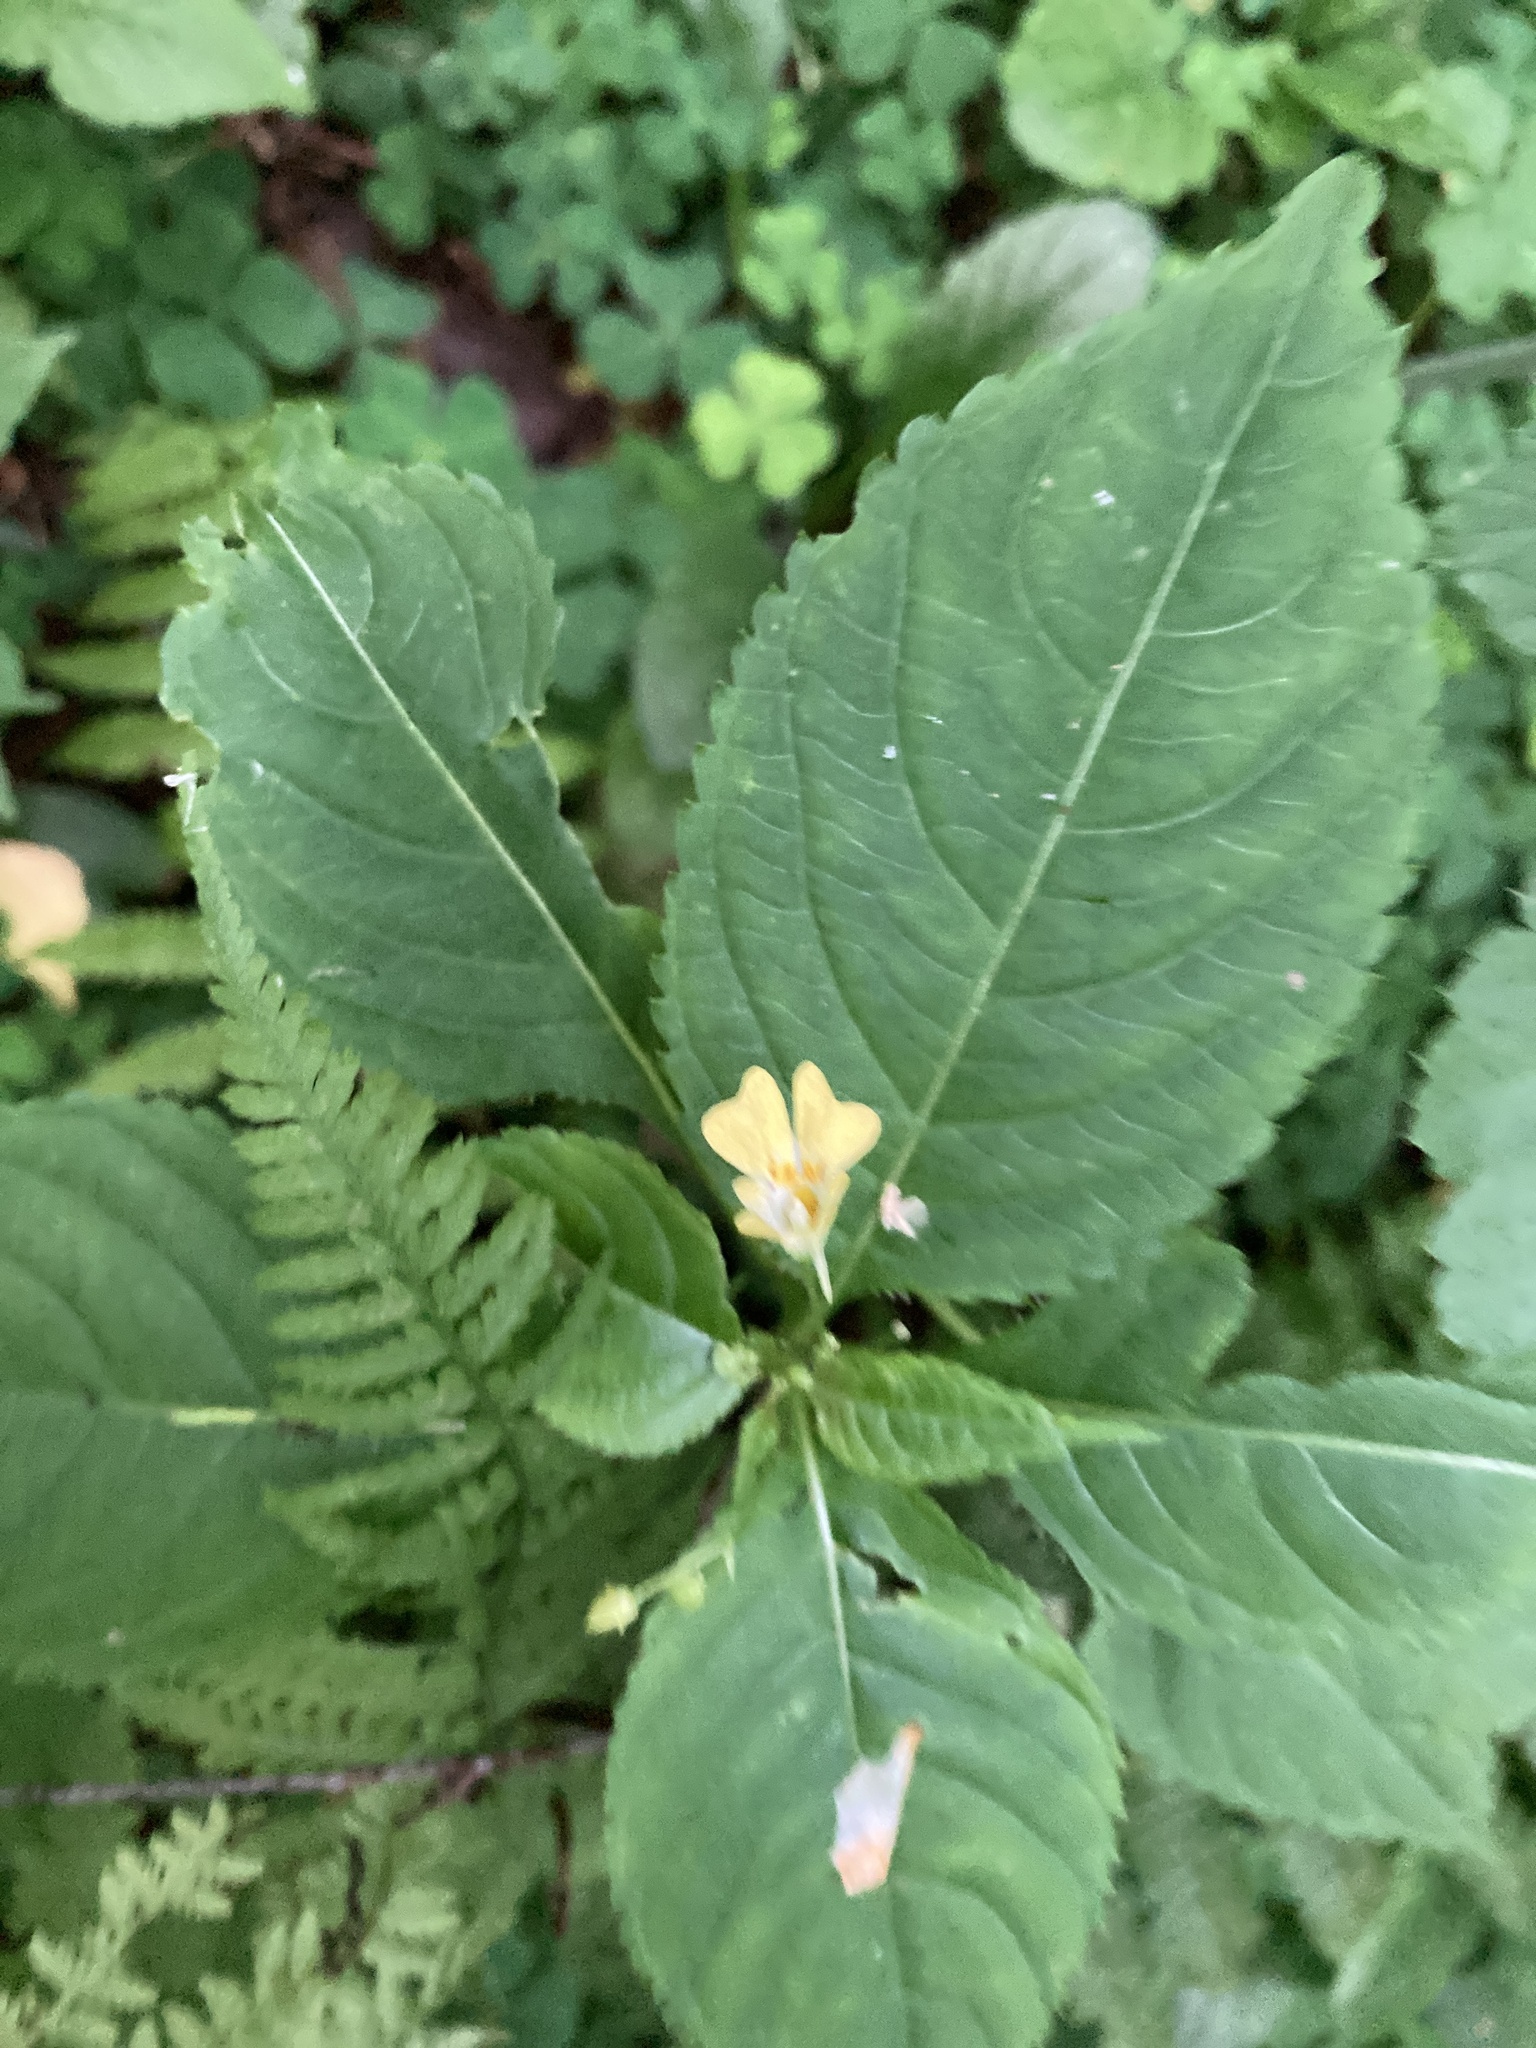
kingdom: Plantae
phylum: Tracheophyta
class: Magnoliopsida
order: Ericales
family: Balsaminaceae
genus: Impatiens
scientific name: Impatiens parviflora
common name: Small balsam
